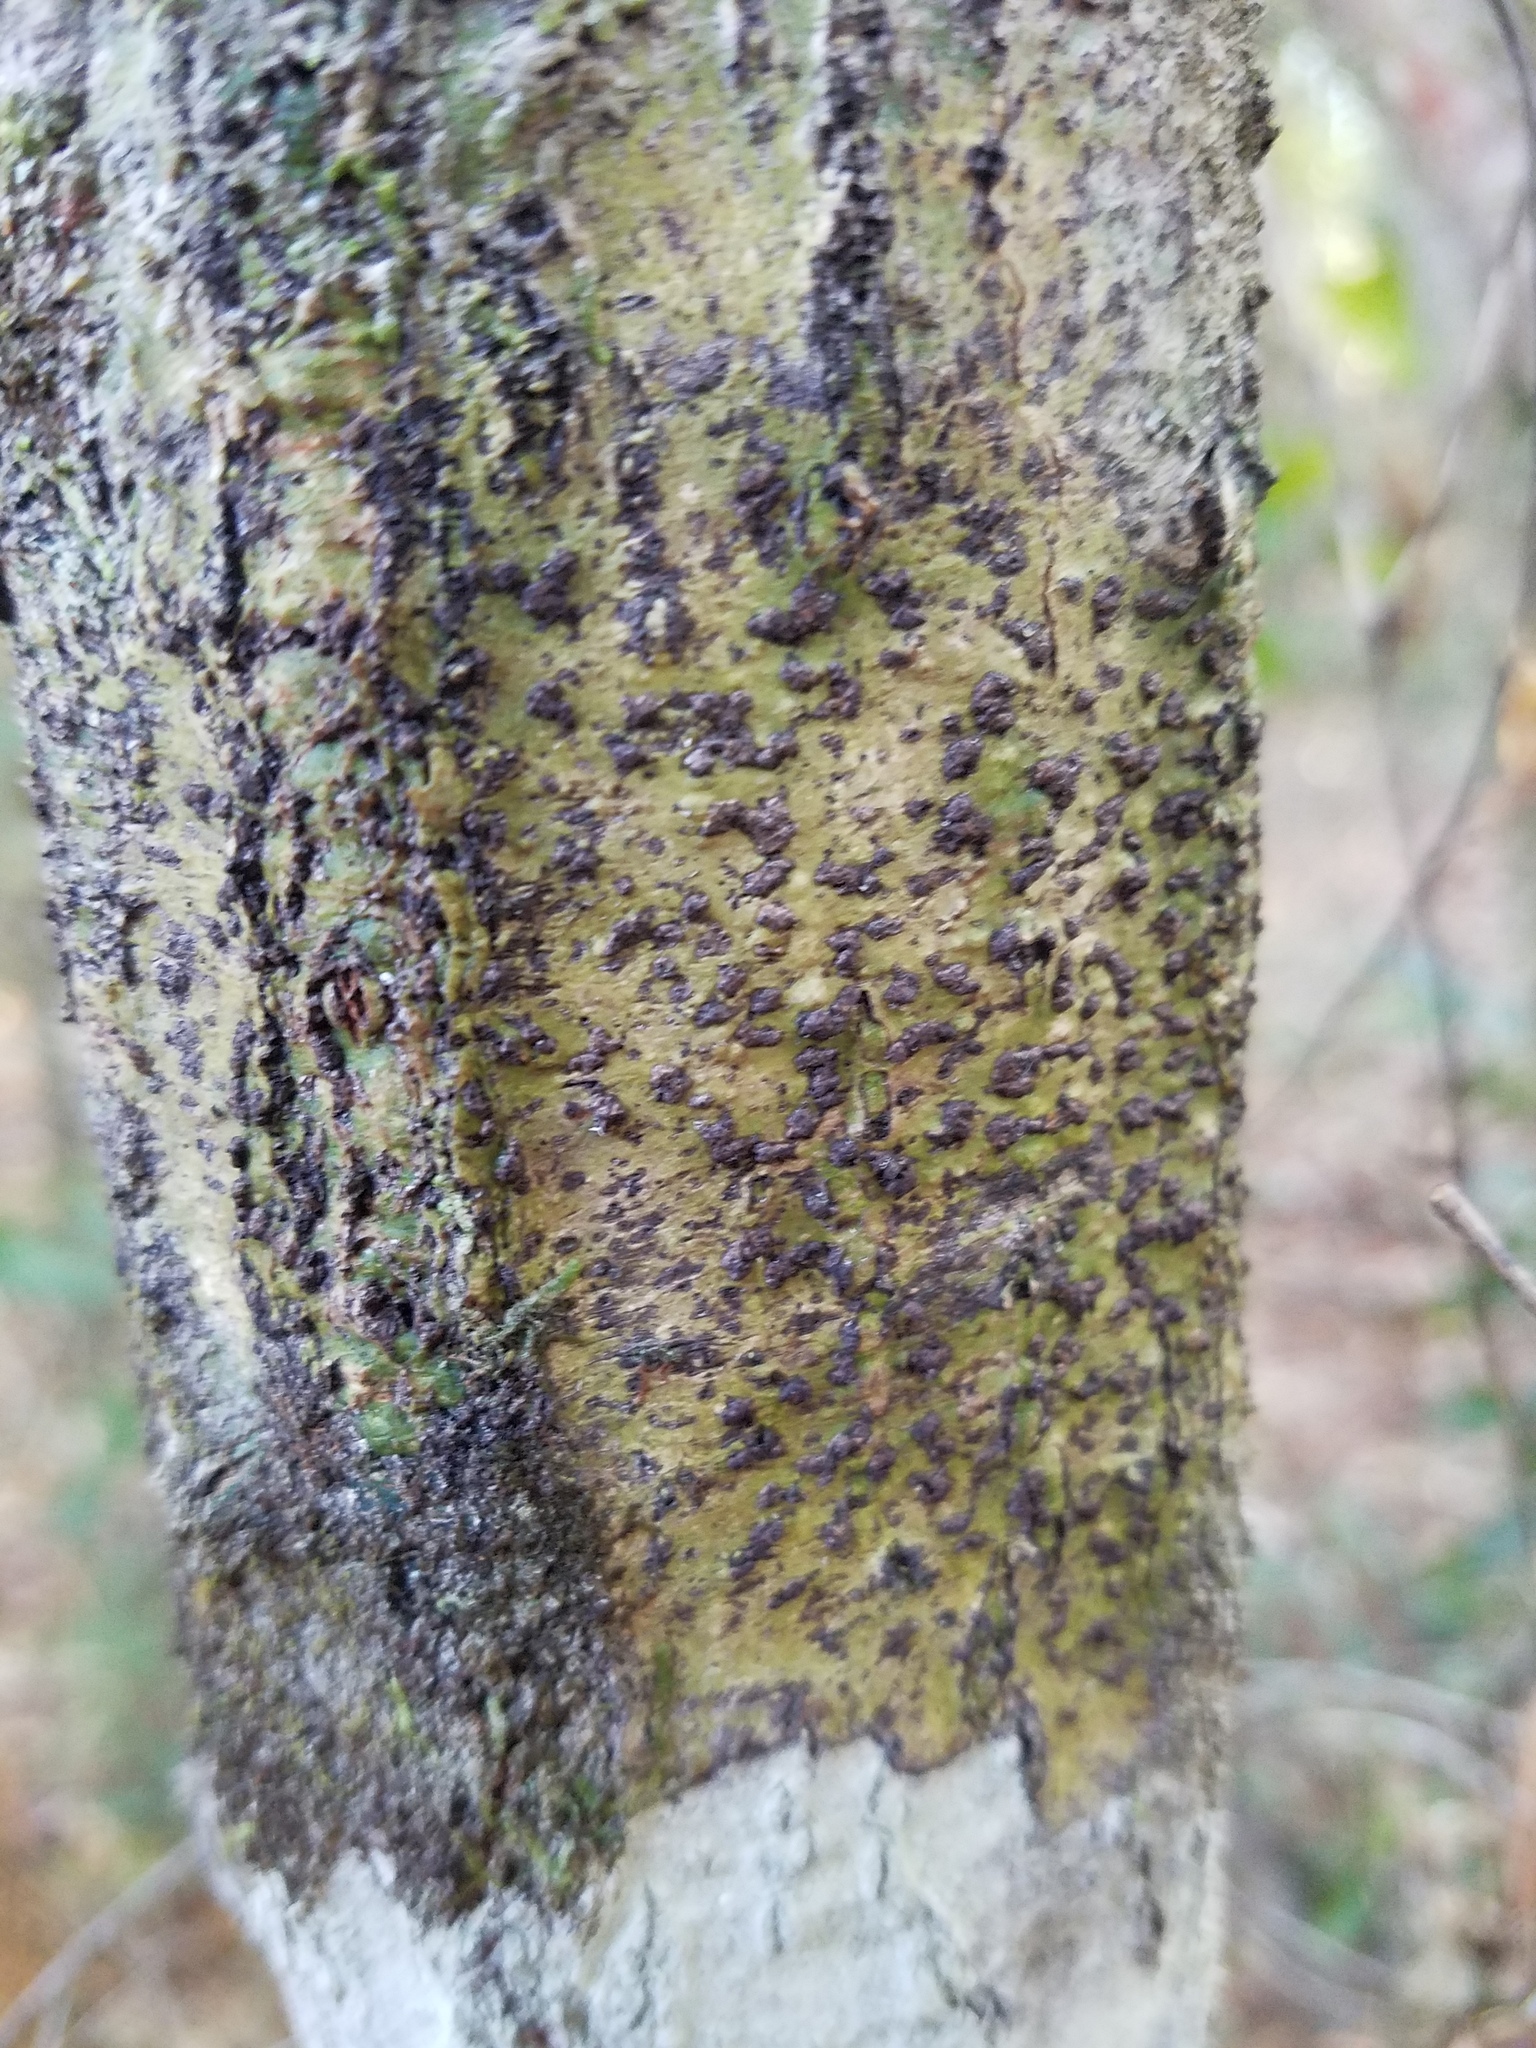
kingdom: Fungi
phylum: Ascomycota
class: Dothideomycetes
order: Trypetheliales
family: Trypetheliaceae
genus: Bathelium
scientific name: Bathelium carolinianum
